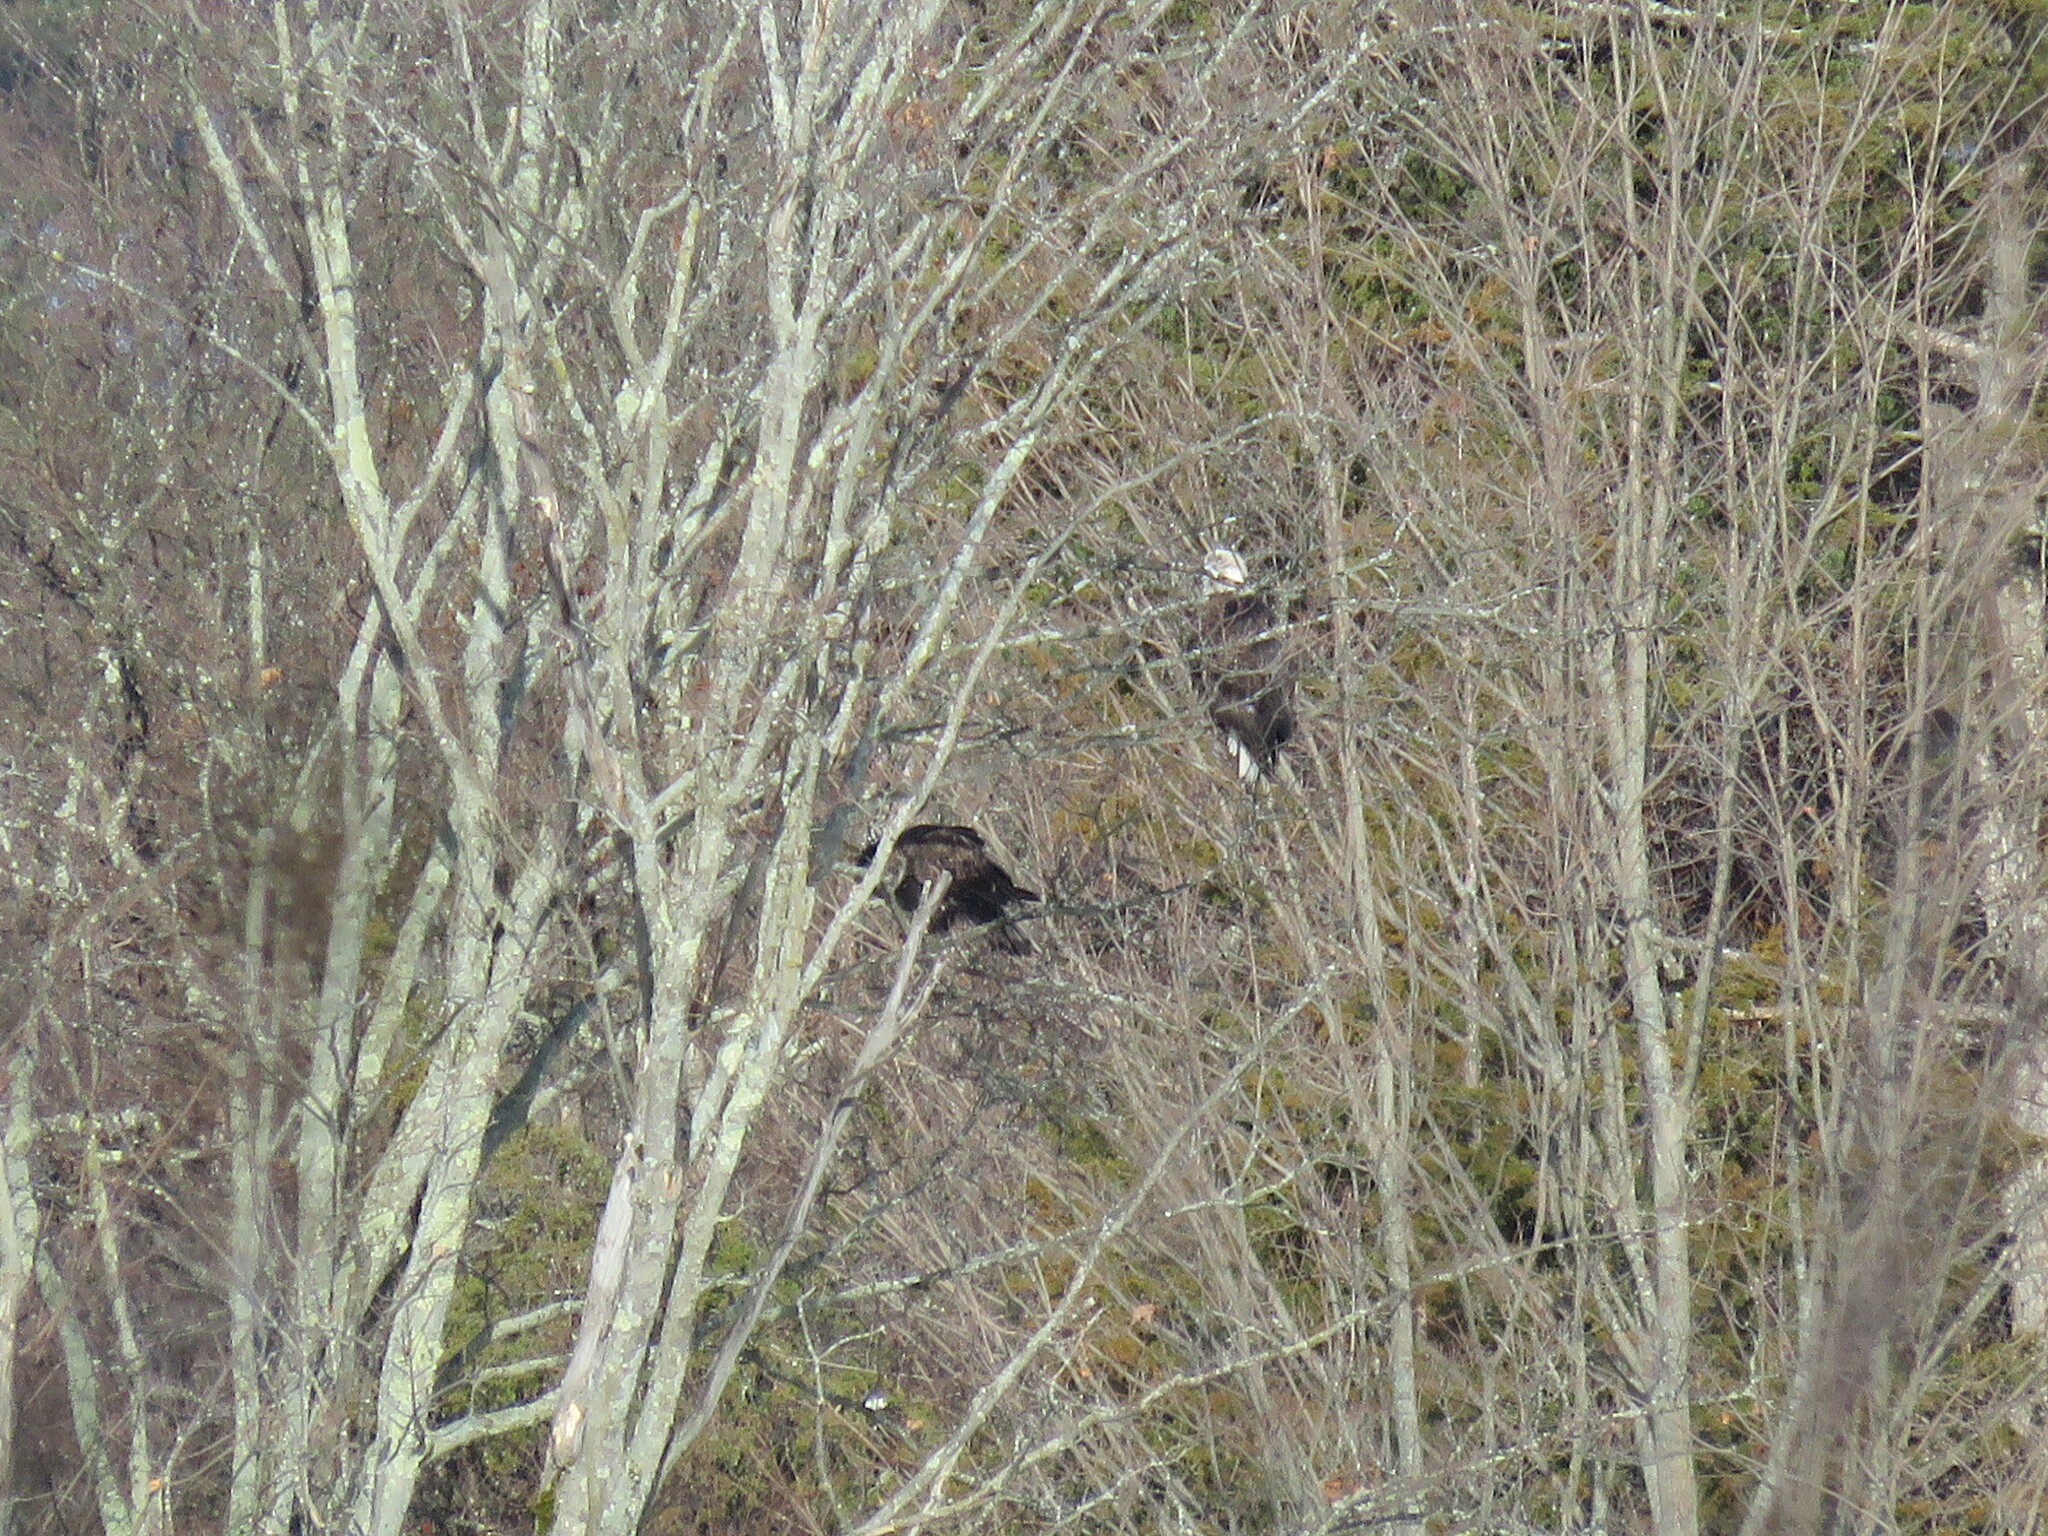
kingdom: Animalia
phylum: Chordata
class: Aves
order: Accipitriformes
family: Accipitridae
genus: Haliaeetus
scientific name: Haliaeetus leucocephalus
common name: Bald eagle
